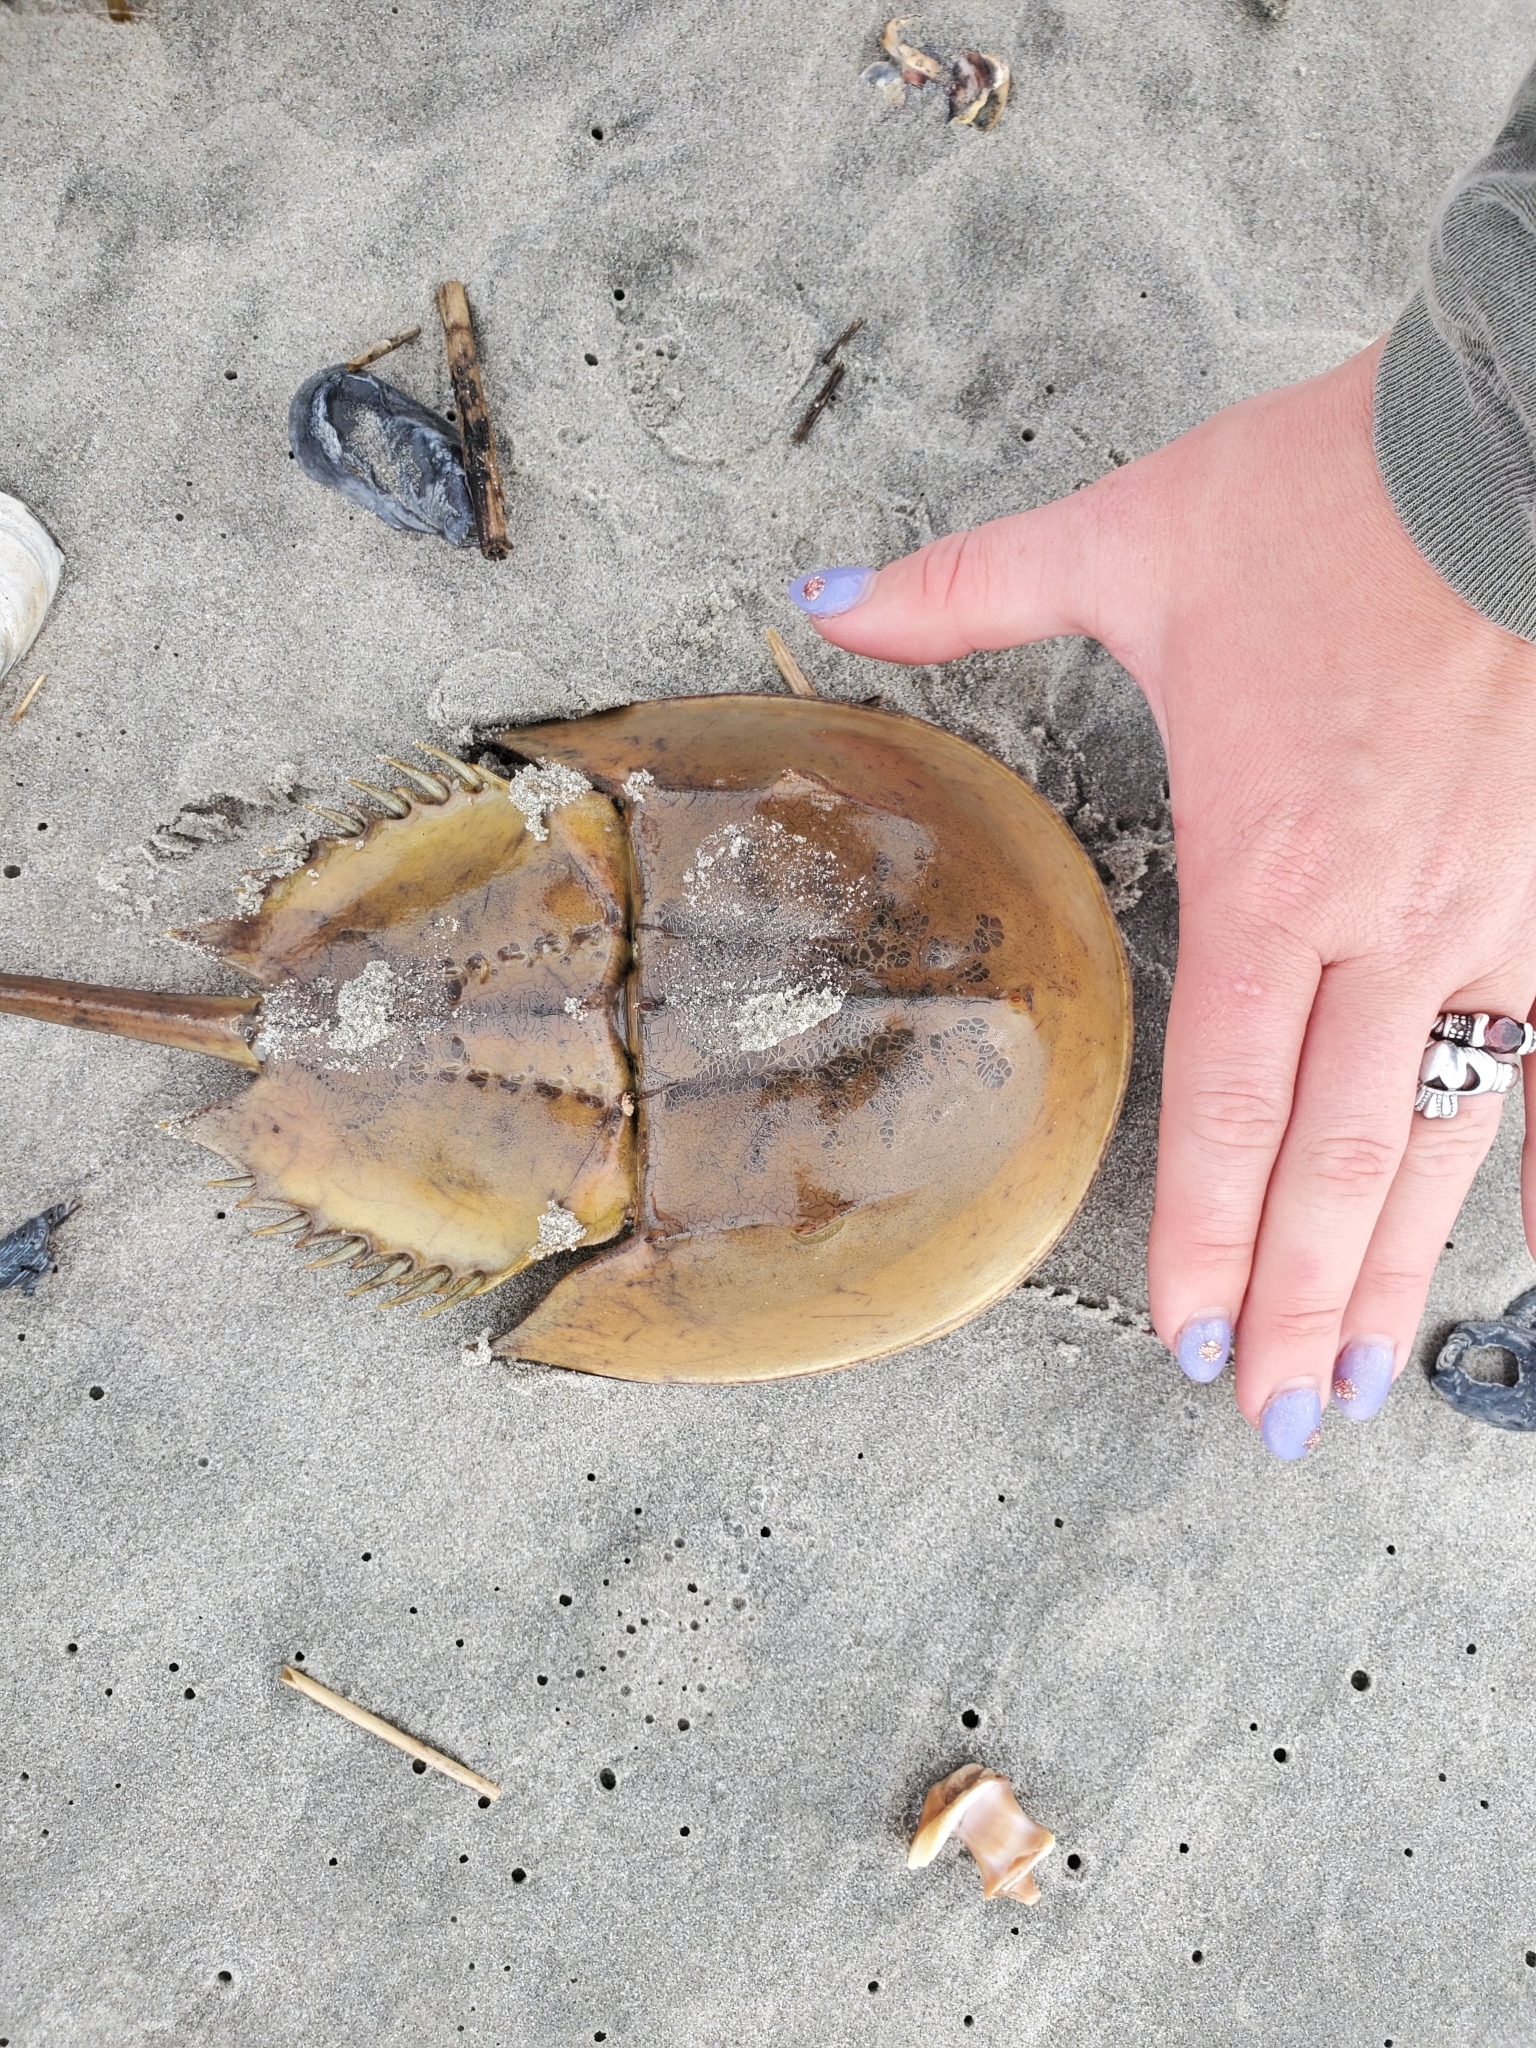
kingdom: Animalia
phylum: Arthropoda
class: Merostomata
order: Xiphosurida
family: Limulidae
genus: Limulus
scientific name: Limulus polyphemus
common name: Horseshoe crab
